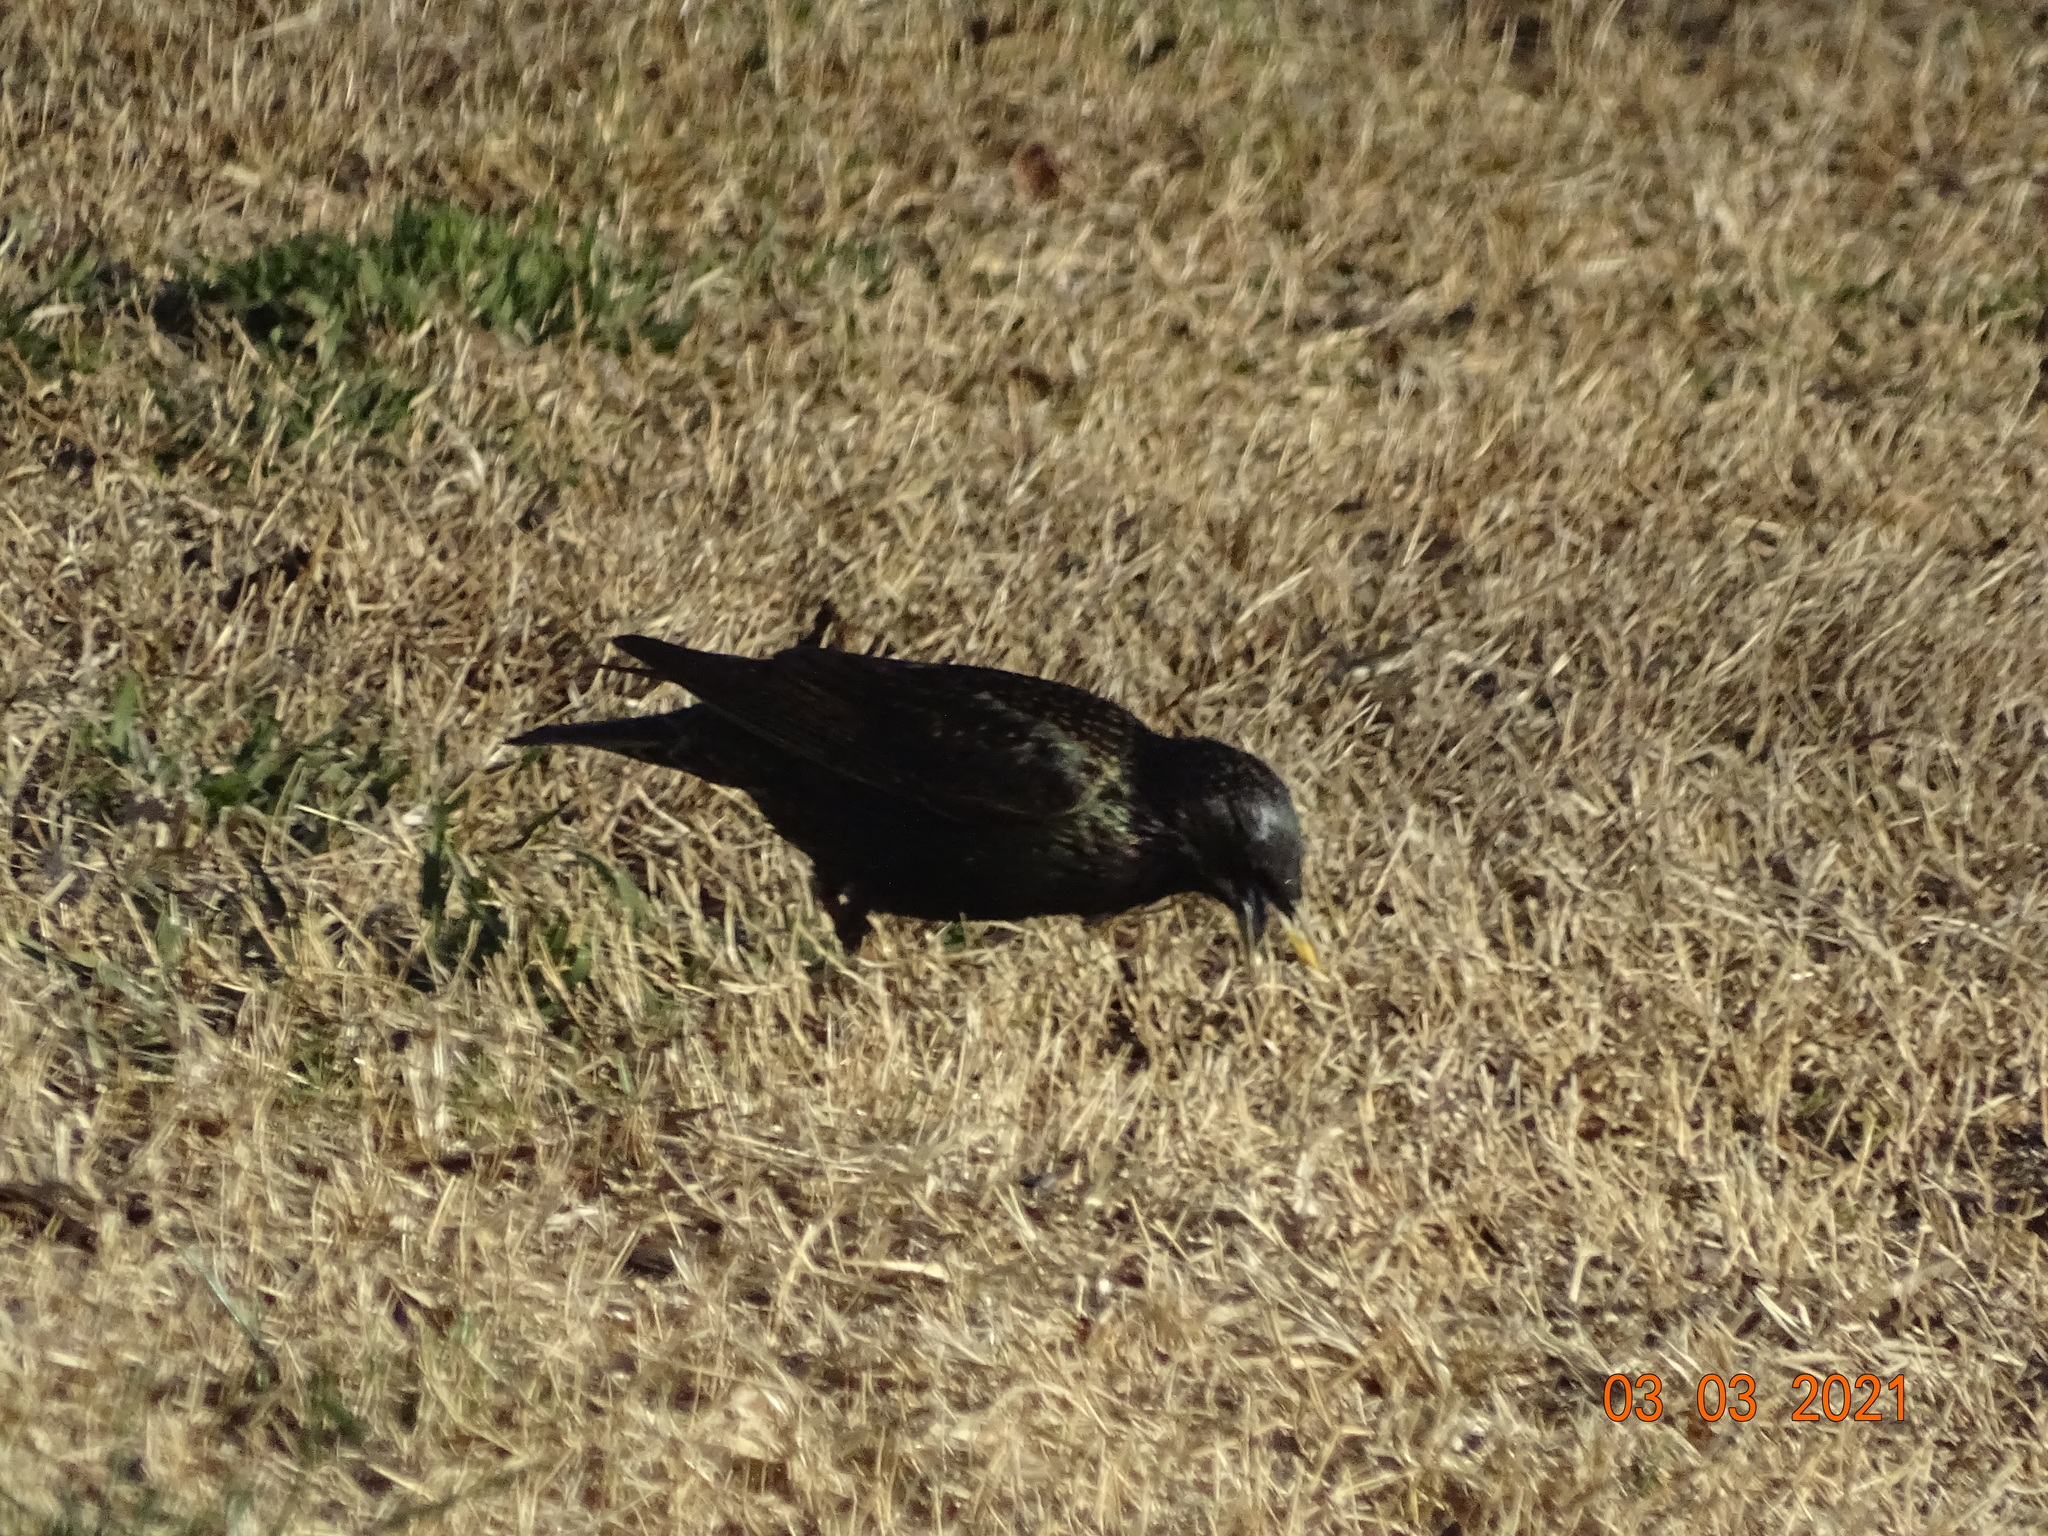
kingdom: Animalia
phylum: Chordata
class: Aves
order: Passeriformes
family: Sturnidae
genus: Sturnus
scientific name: Sturnus vulgaris
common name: Common starling
